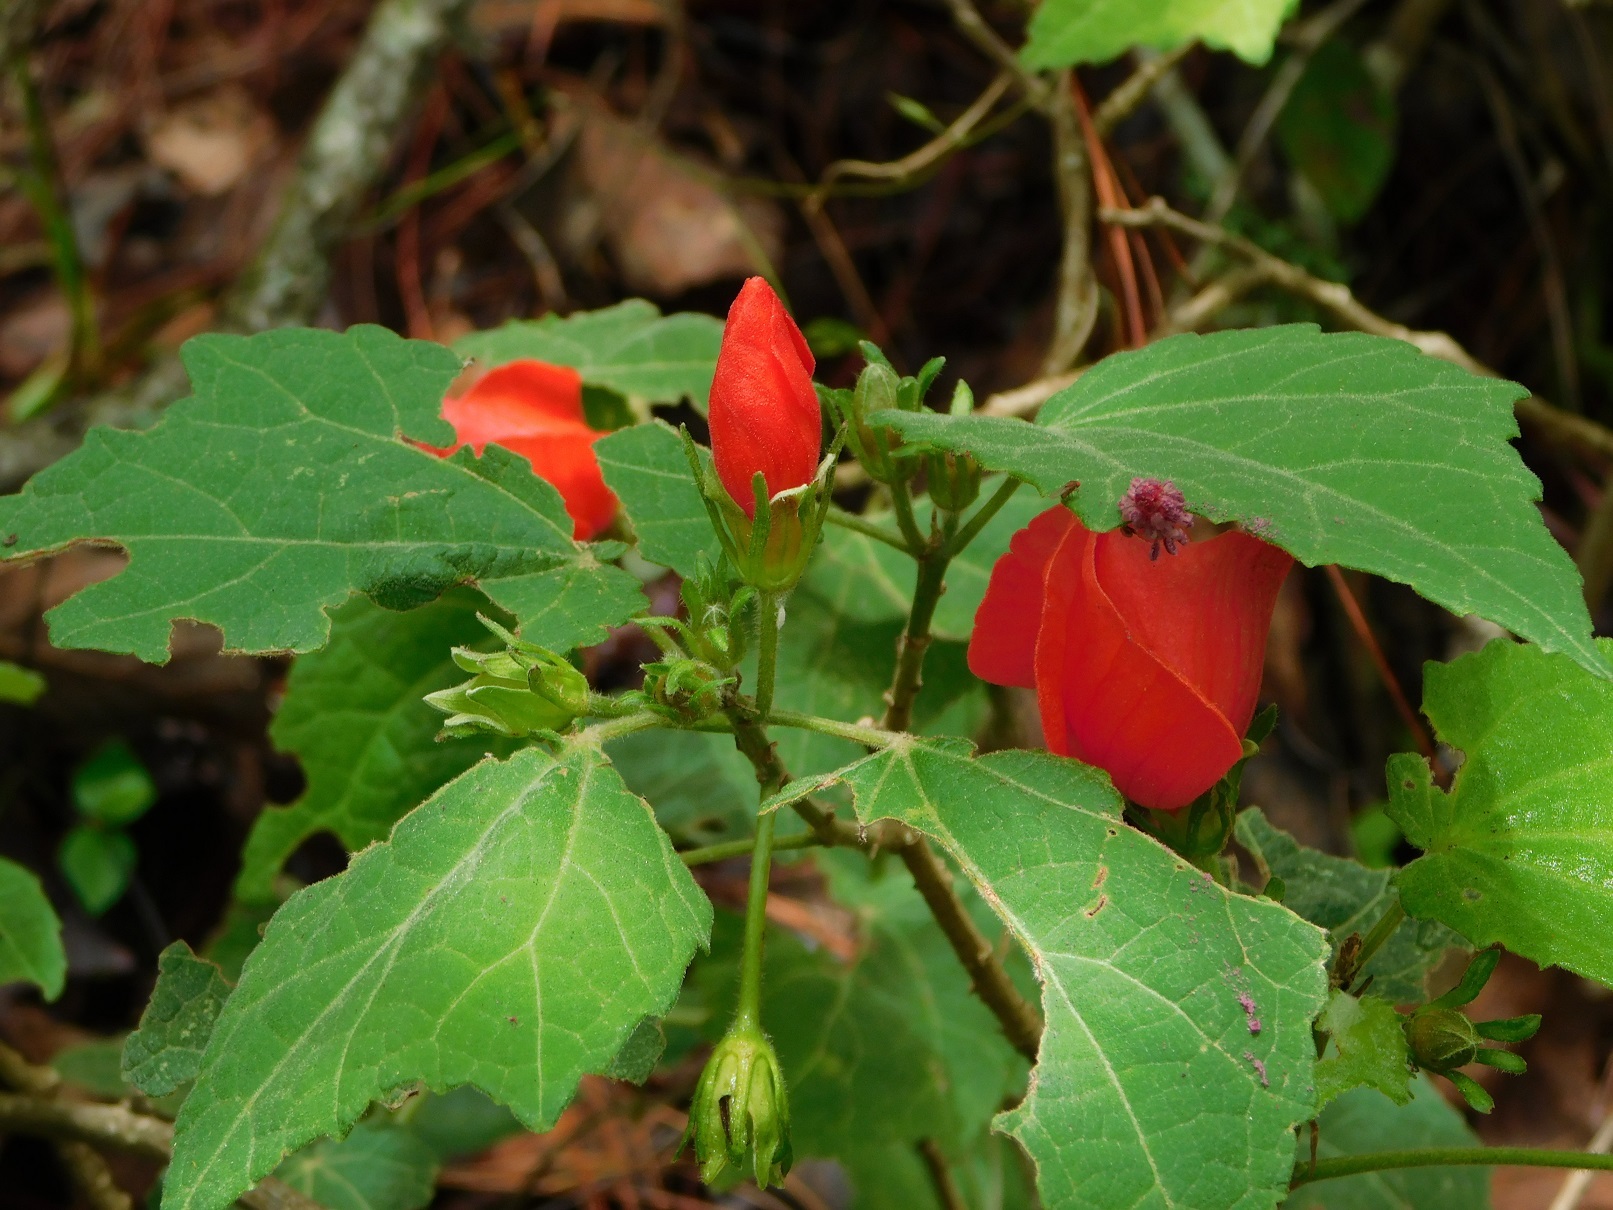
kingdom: Plantae
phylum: Tracheophyta
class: Magnoliopsida
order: Malvales
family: Malvaceae
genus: Malvaviscus
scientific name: Malvaviscus arboreus
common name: Wax mallow
